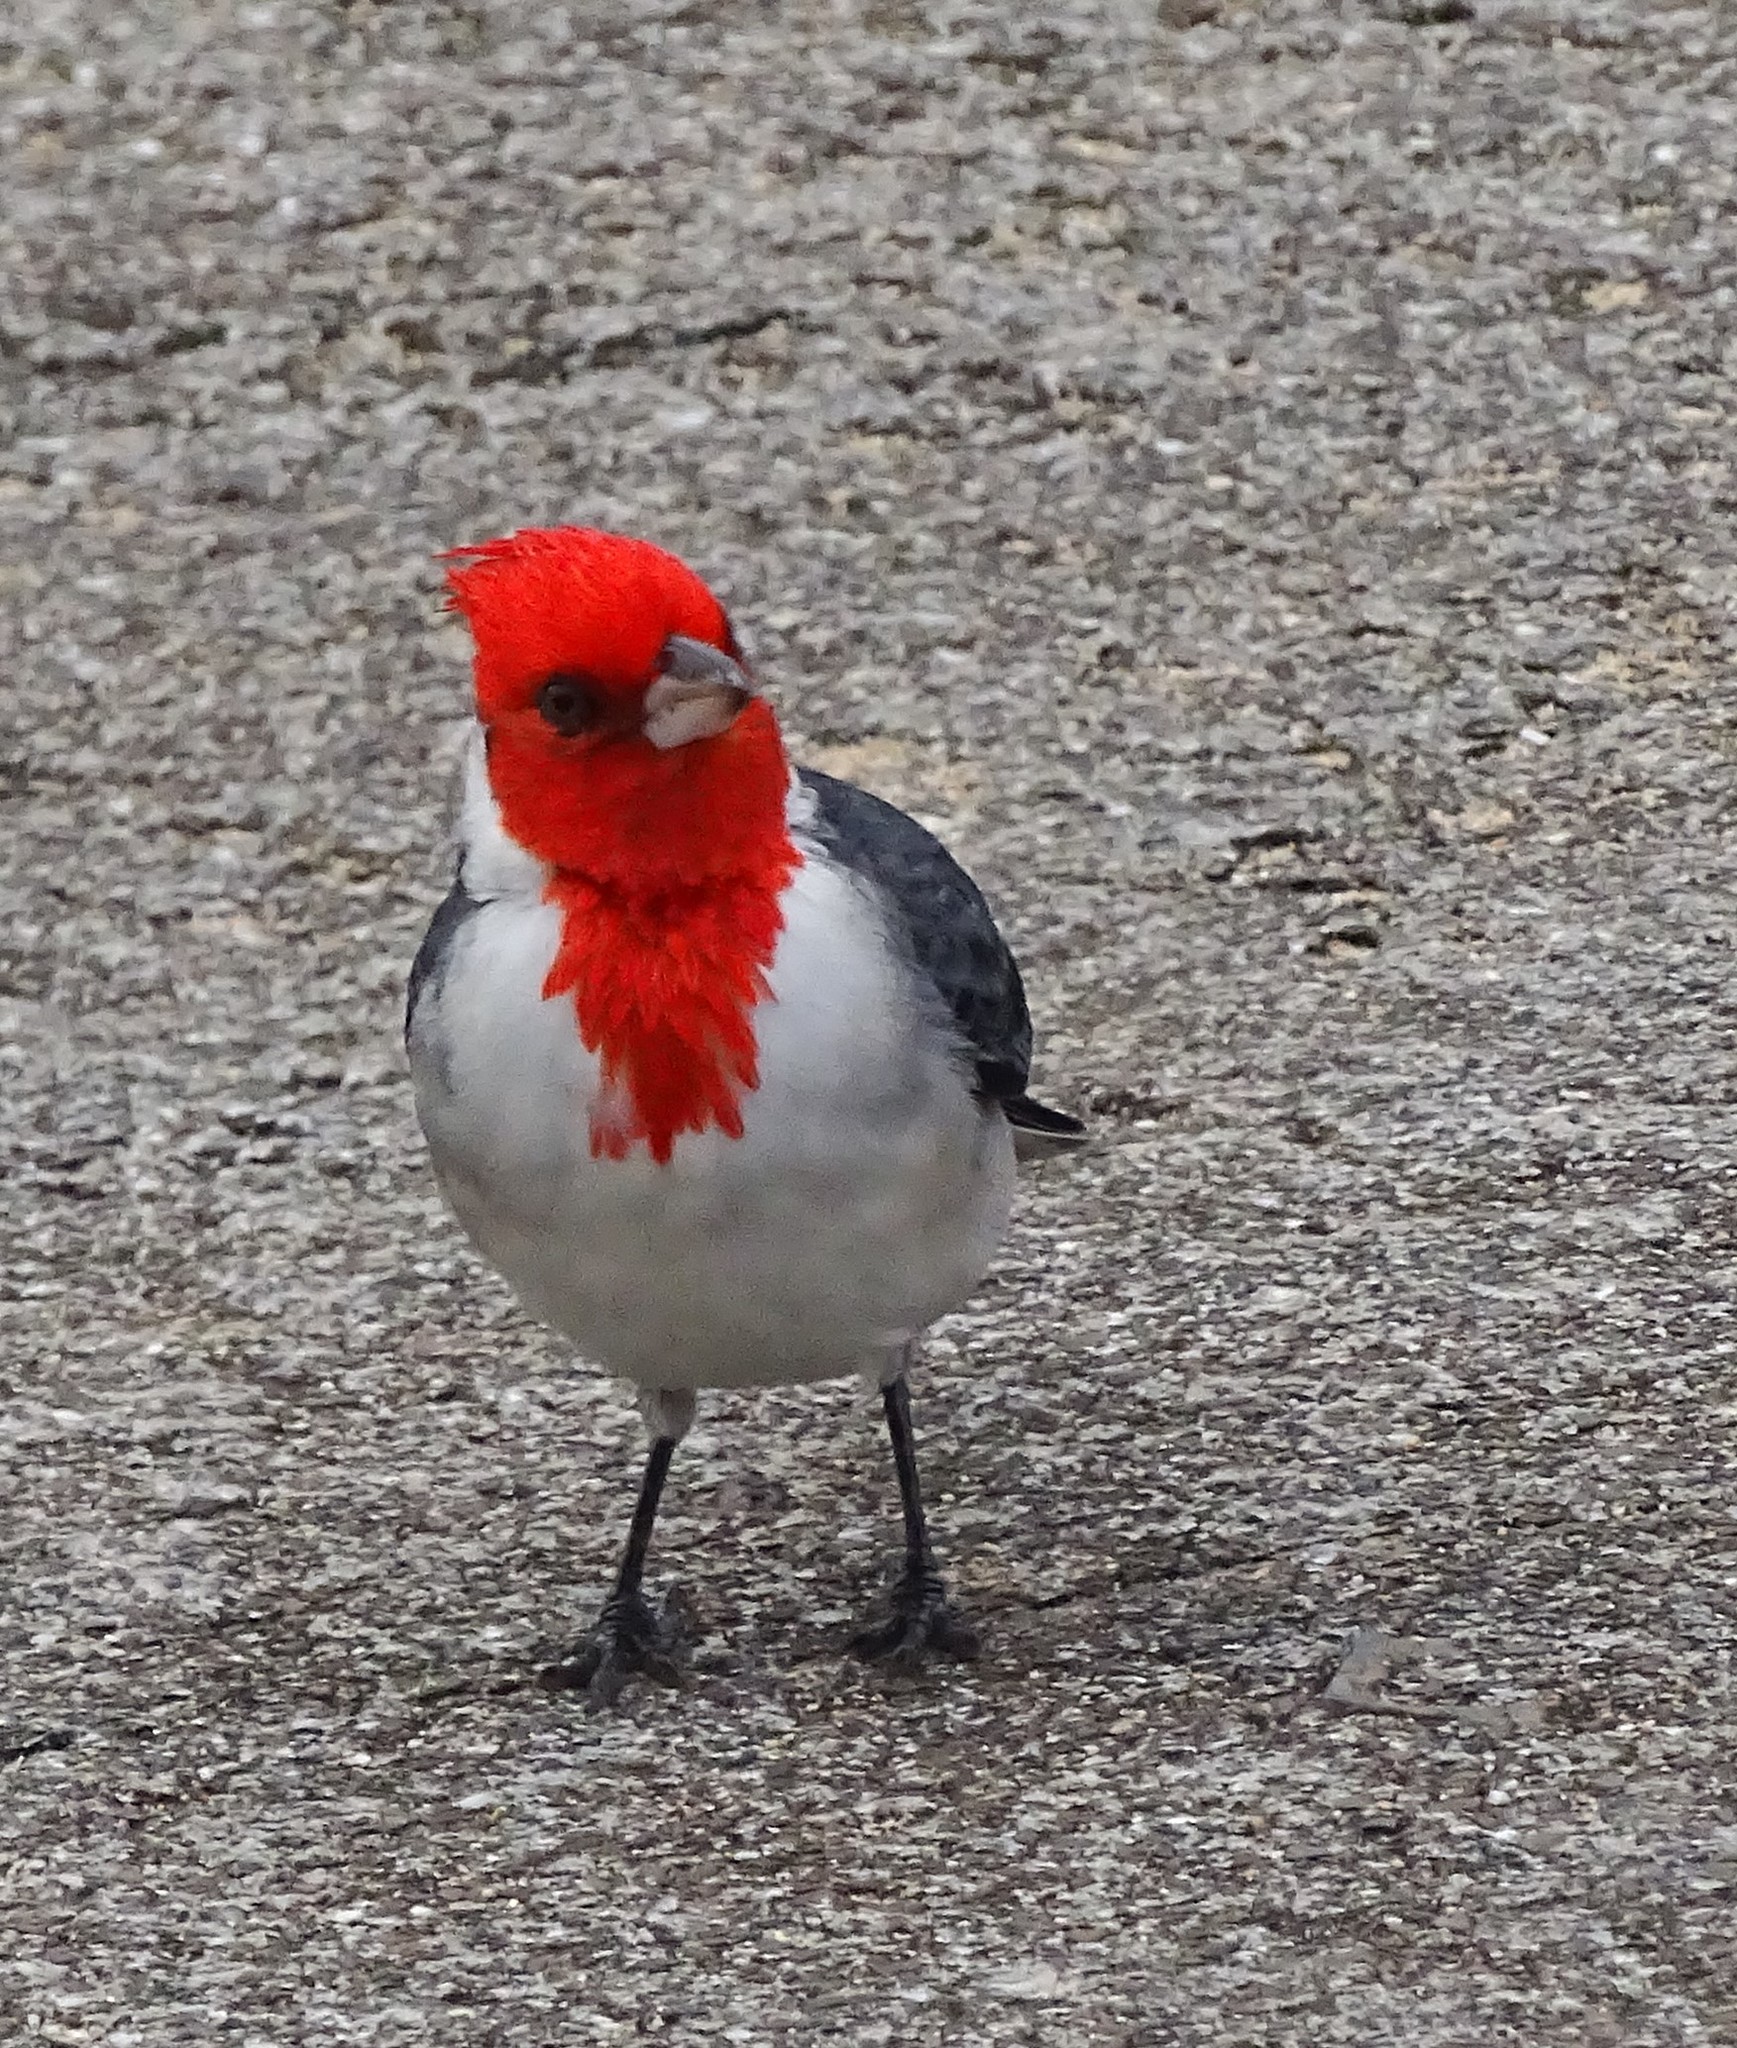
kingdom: Animalia
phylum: Chordata
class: Aves
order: Passeriformes
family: Thraupidae
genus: Paroaria
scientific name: Paroaria coronata
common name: Red-crested cardinal
